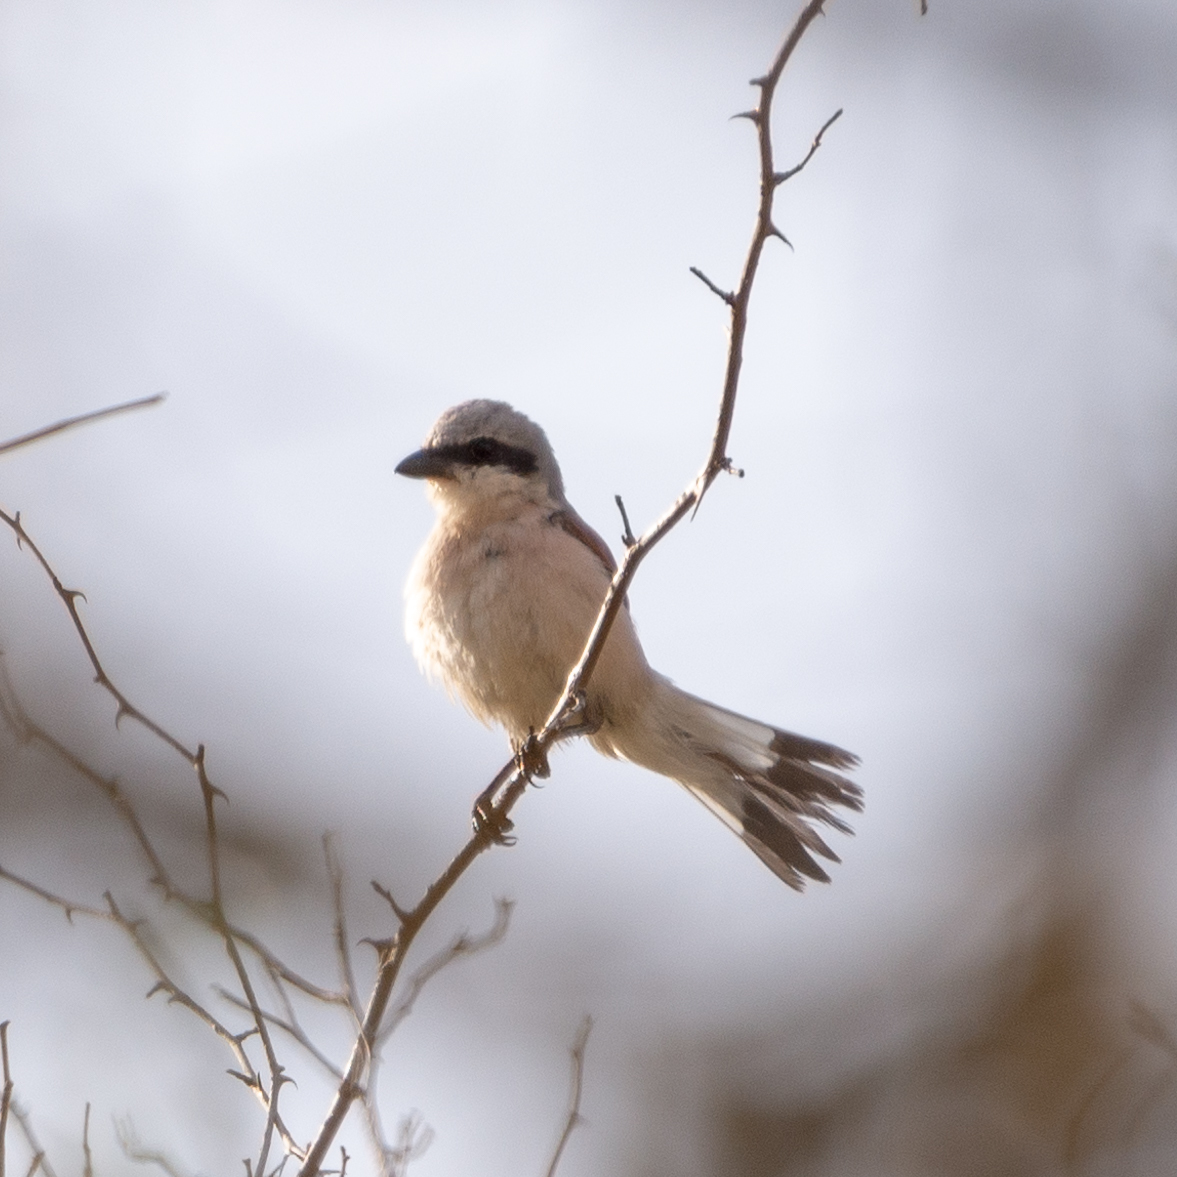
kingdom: Animalia
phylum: Chordata
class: Aves
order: Passeriformes
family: Laniidae
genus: Lanius
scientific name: Lanius meridionalis
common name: Iberian grey shrike
